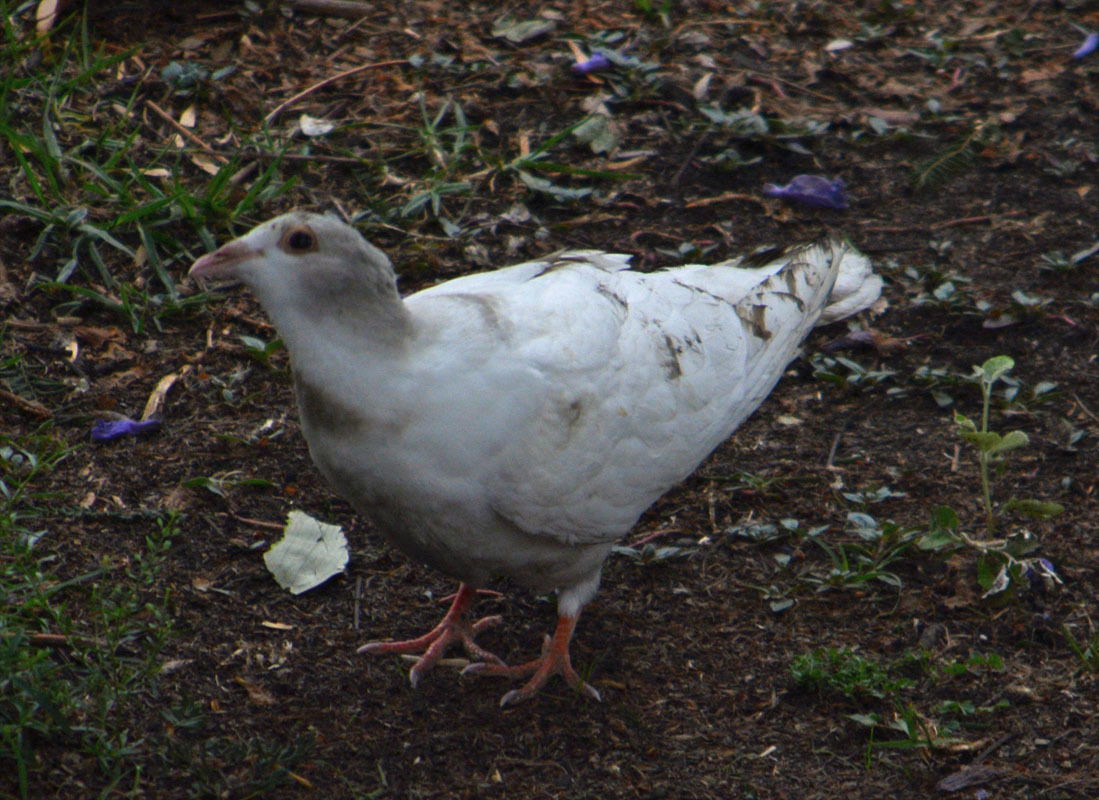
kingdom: Animalia
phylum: Chordata
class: Aves
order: Columbiformes
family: Columbidae
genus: Columba
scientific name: Columba livia
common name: Rock pigeon
